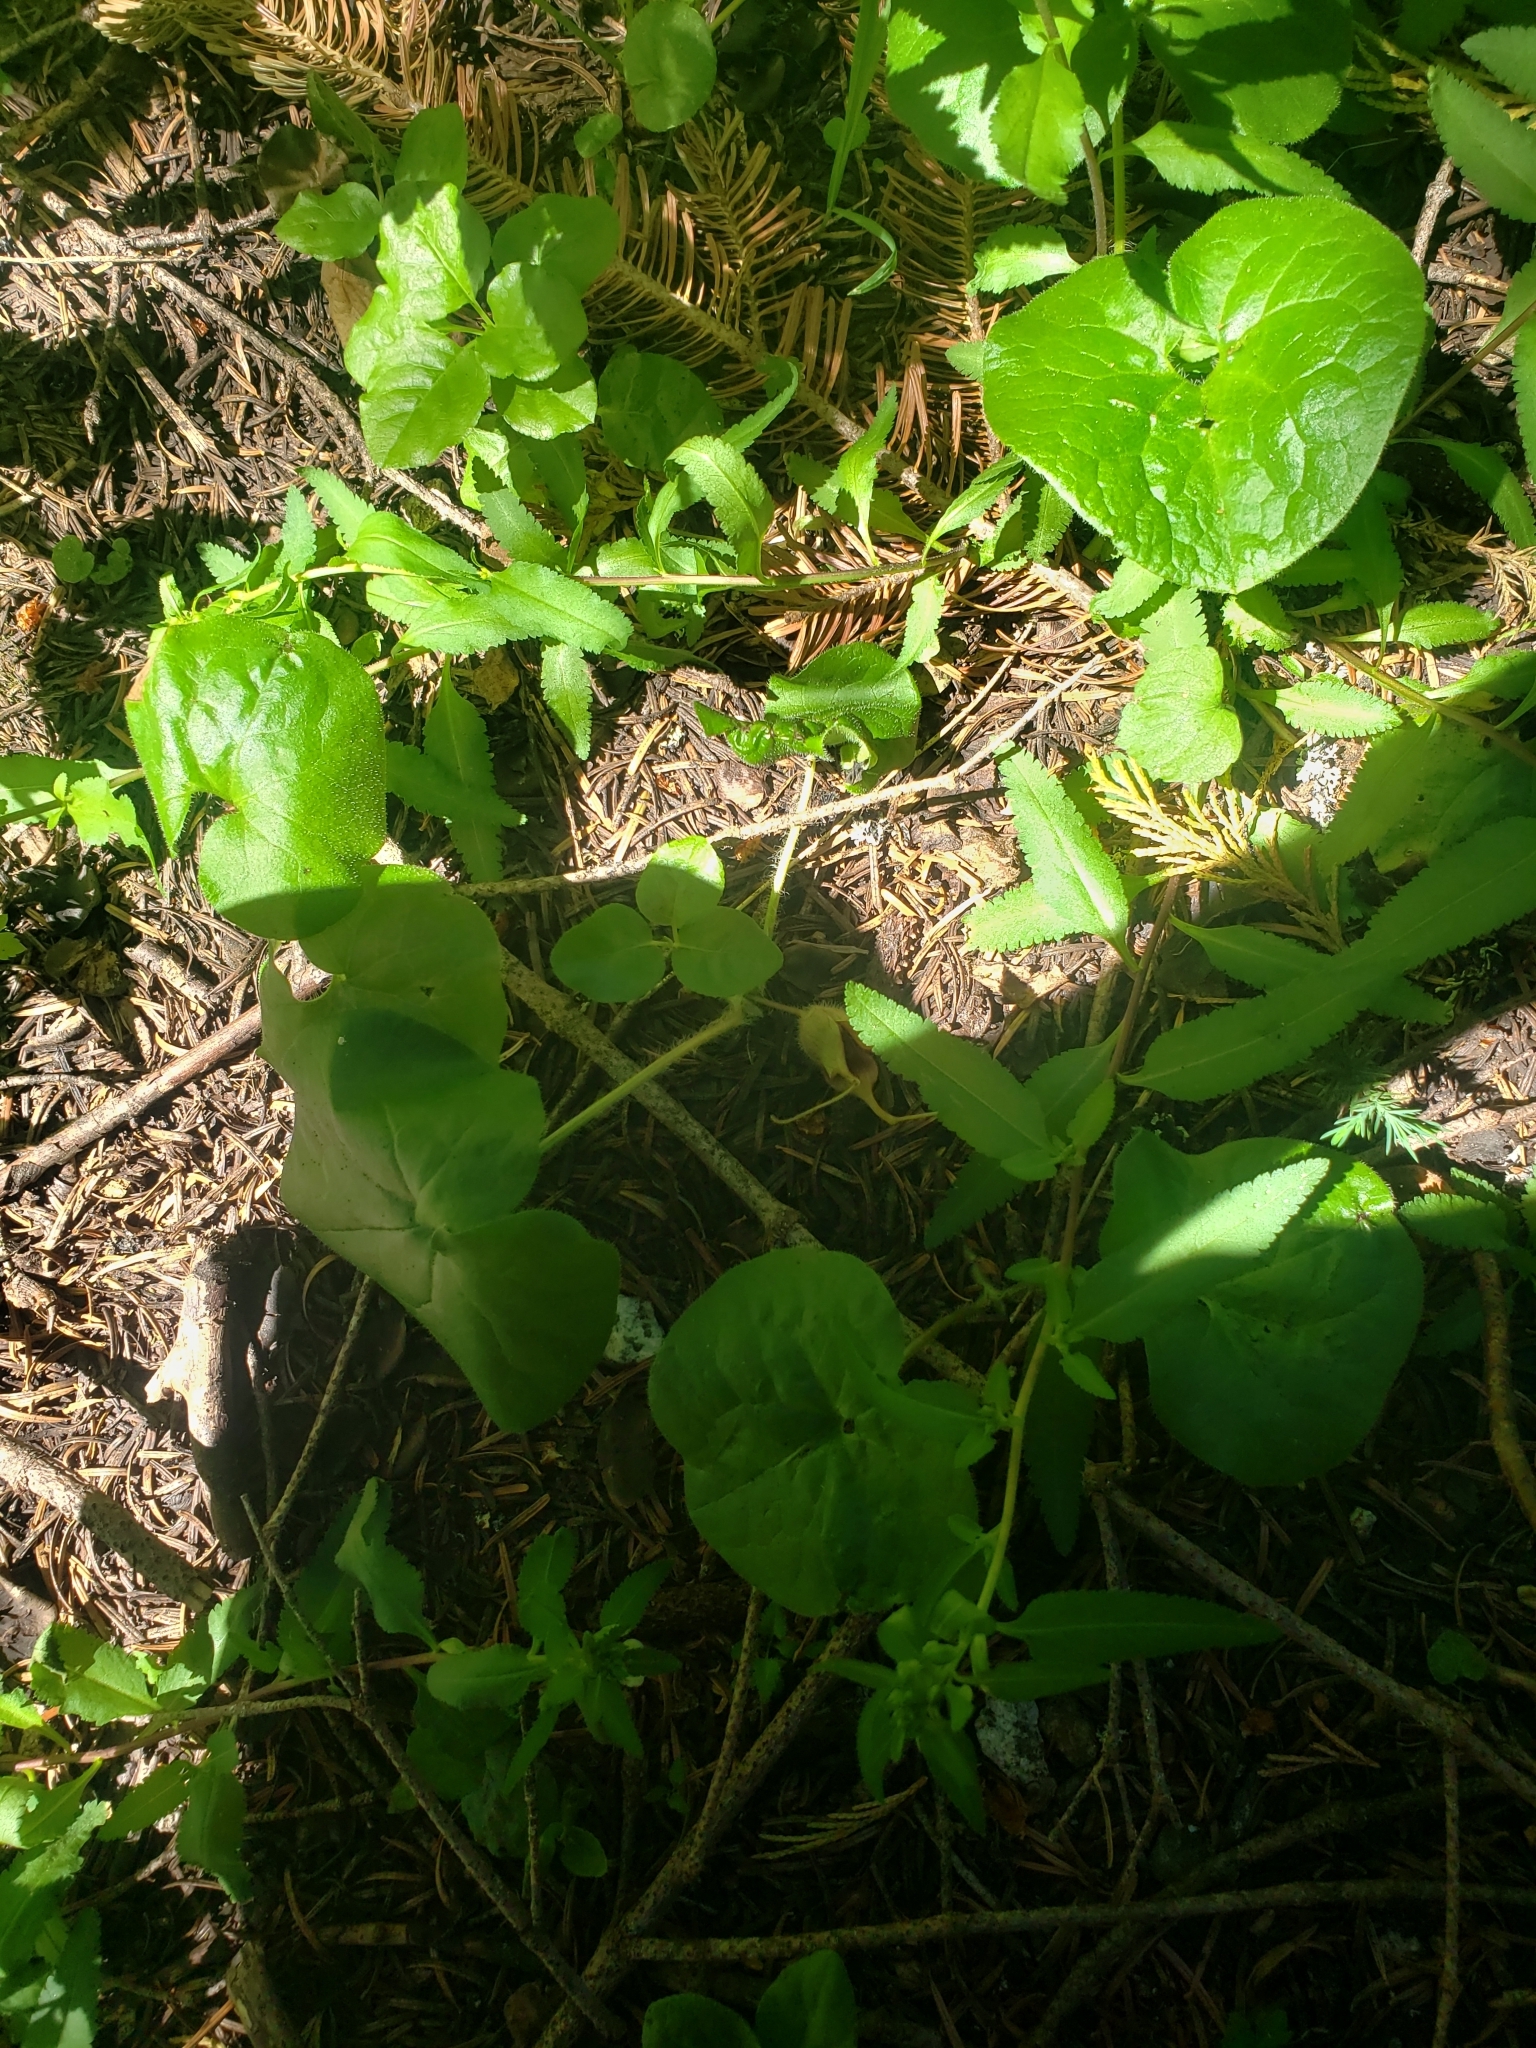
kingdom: Plantae
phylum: Tracheophyta
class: Magnoliopsida
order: Piperales
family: Aristolochiaceae
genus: Asarum
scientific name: Asarum caudatum
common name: Wild ginger
